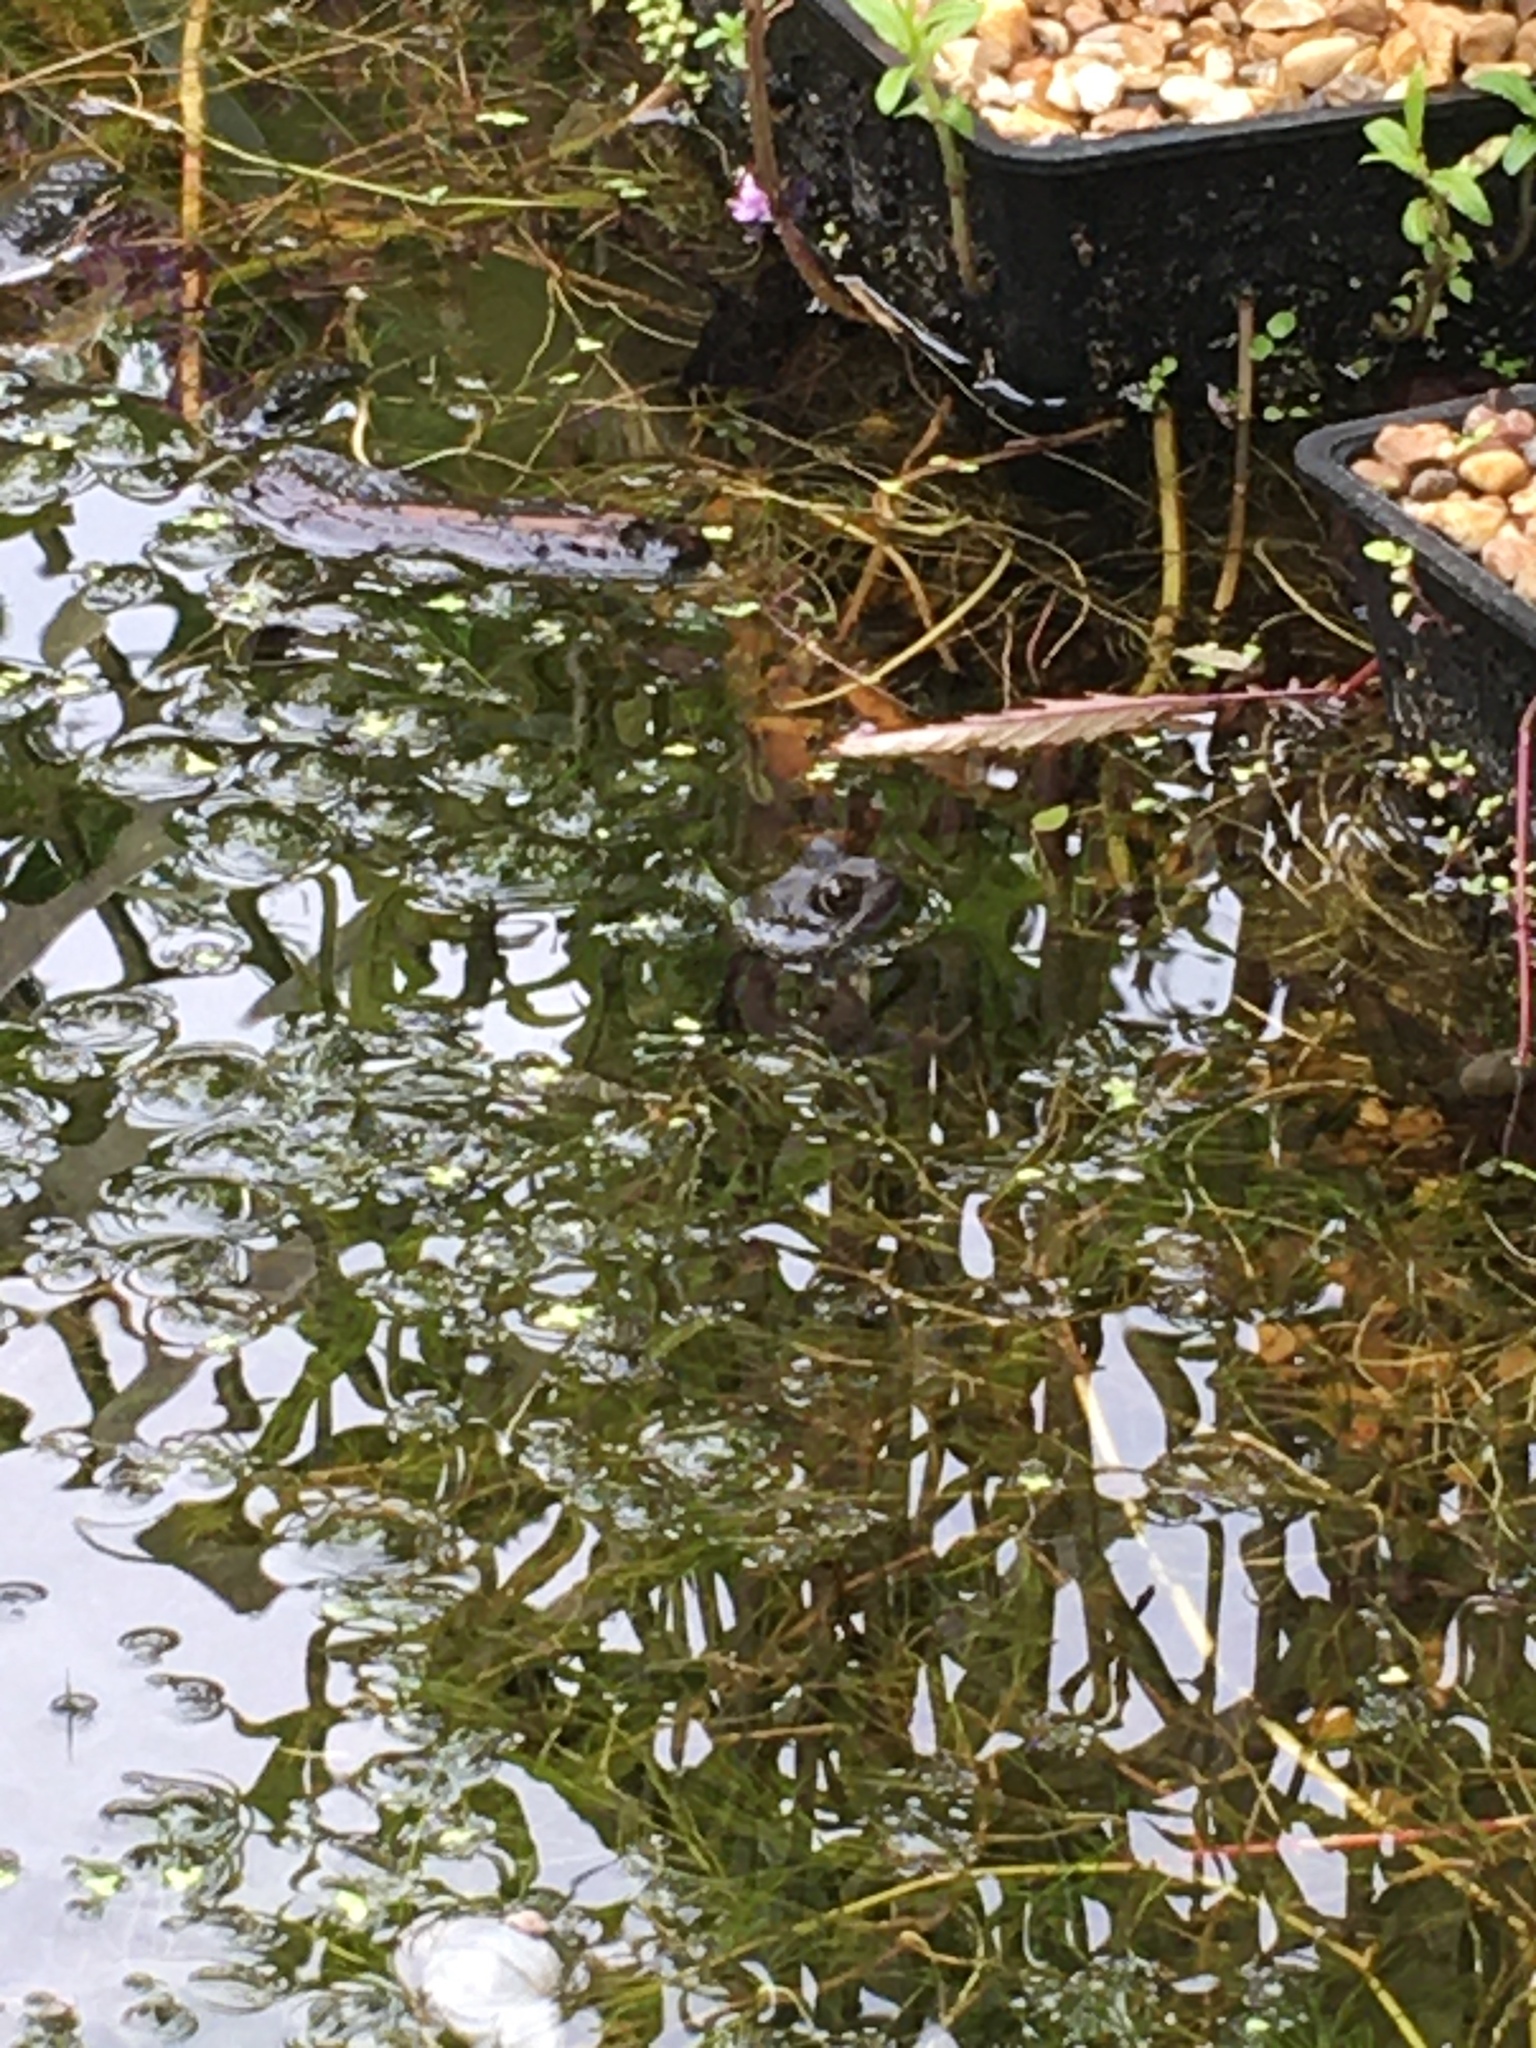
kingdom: Animalia
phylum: Chordata
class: Amphibia
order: Anura
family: Ranidae
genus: Rana
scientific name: Rana temporaria
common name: Common frog
